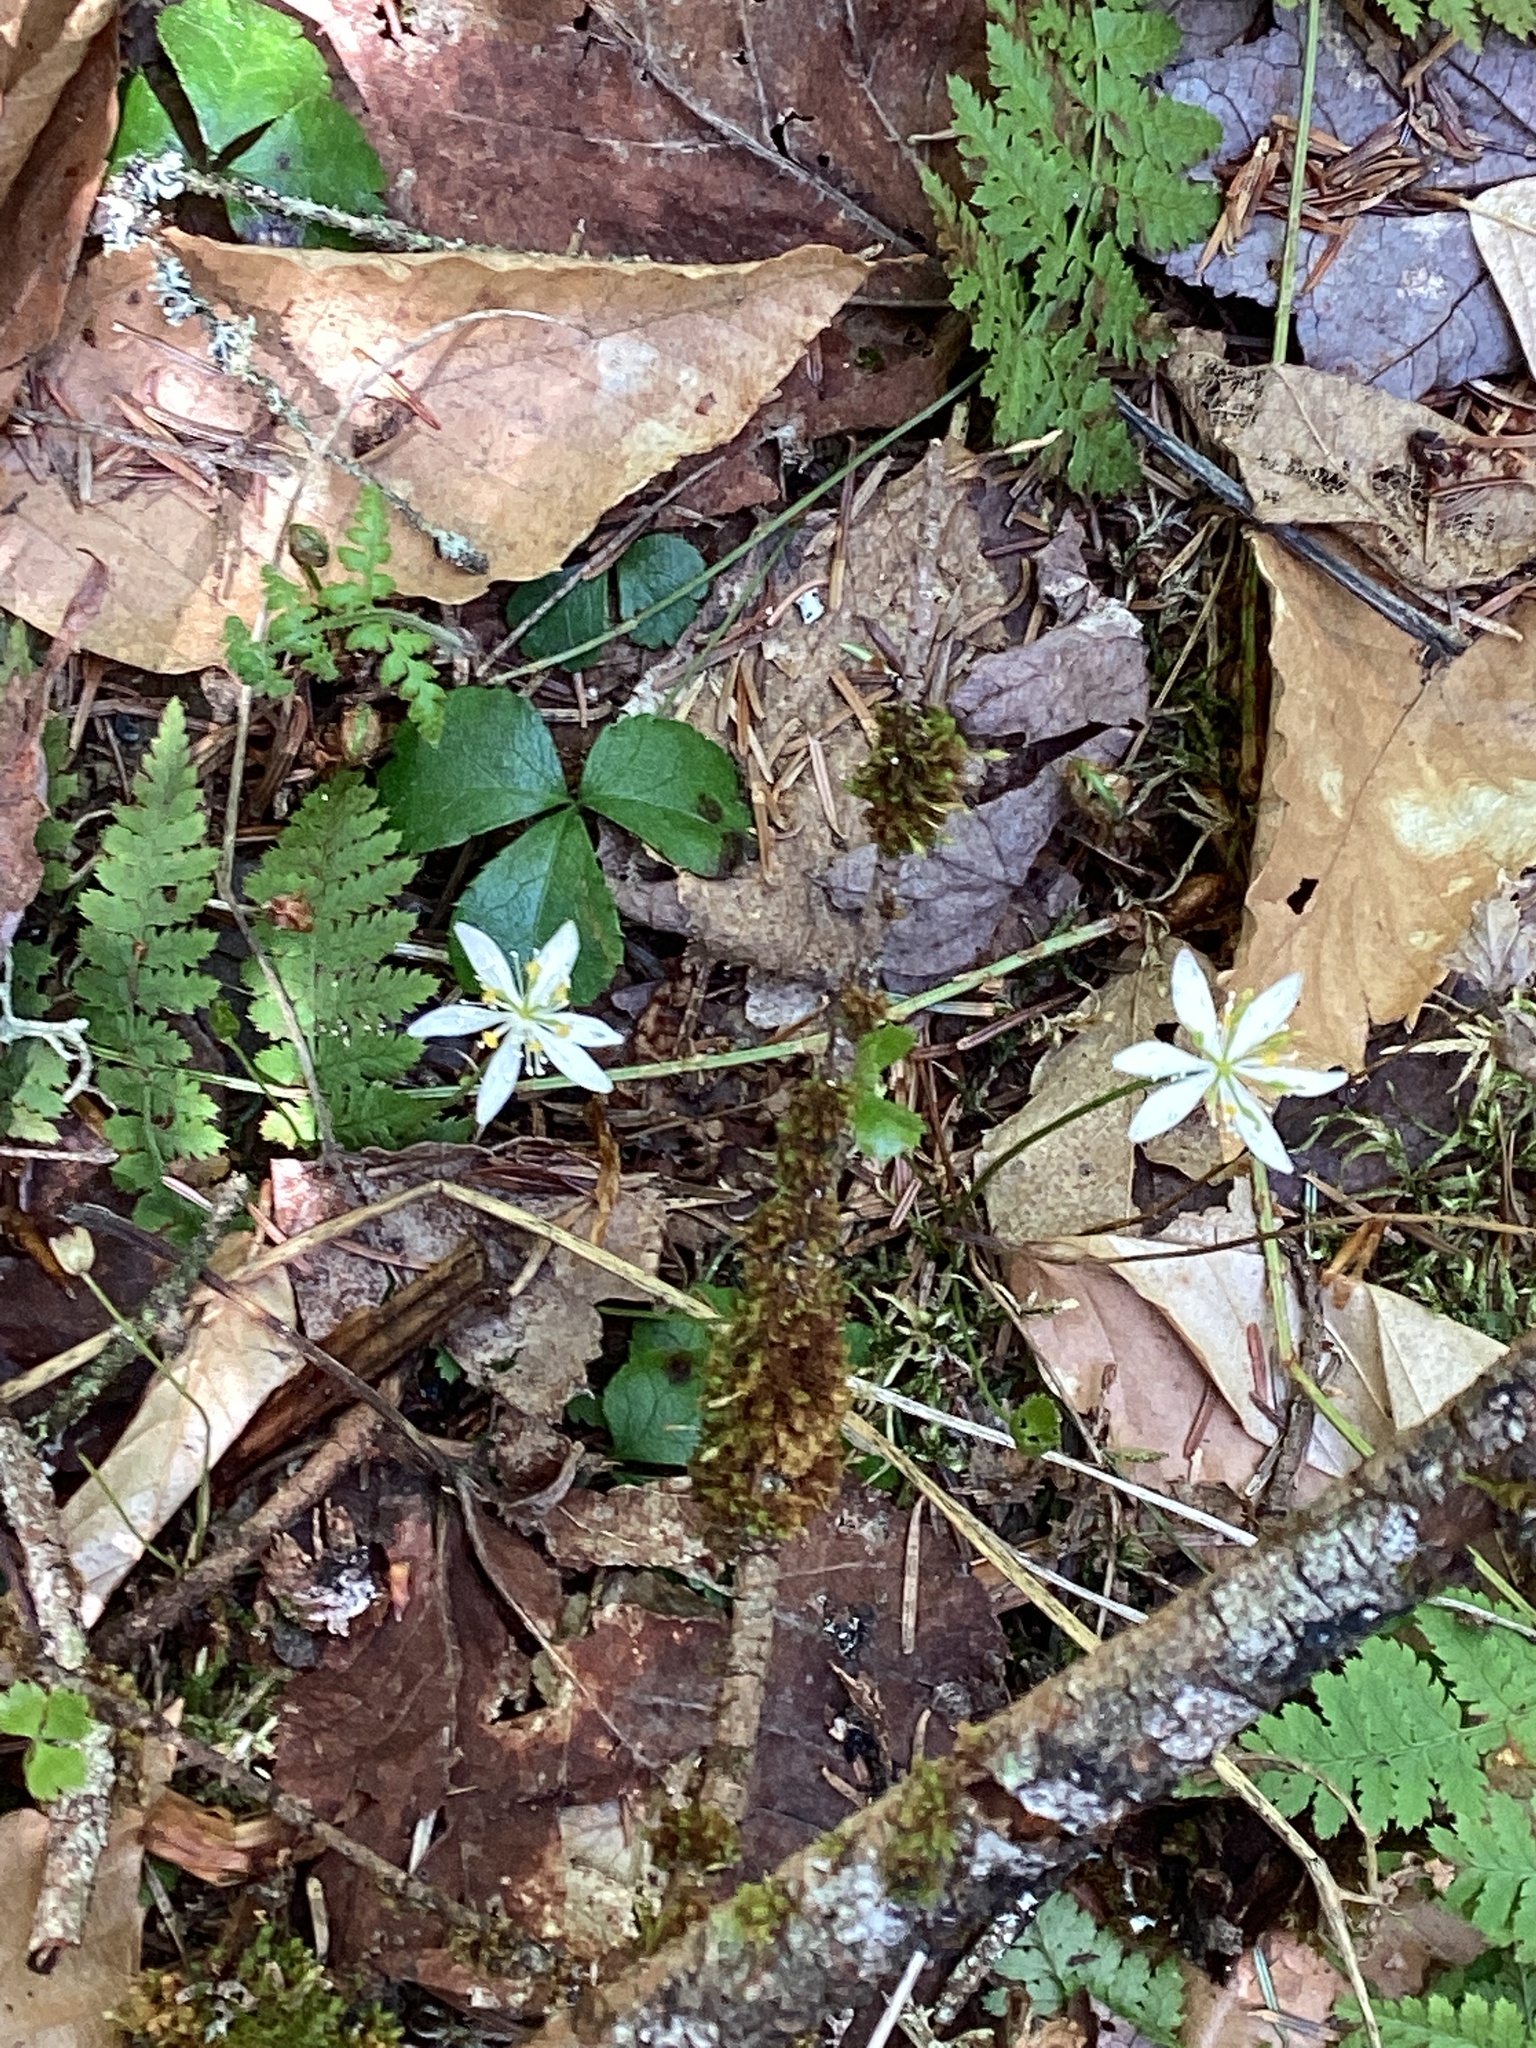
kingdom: Plantae
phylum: Tracheophyta
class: Magnoliopsida
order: Ranunculales
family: Ranunculaceae
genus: Coptis
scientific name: Coptis trifolia
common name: Canker-root
